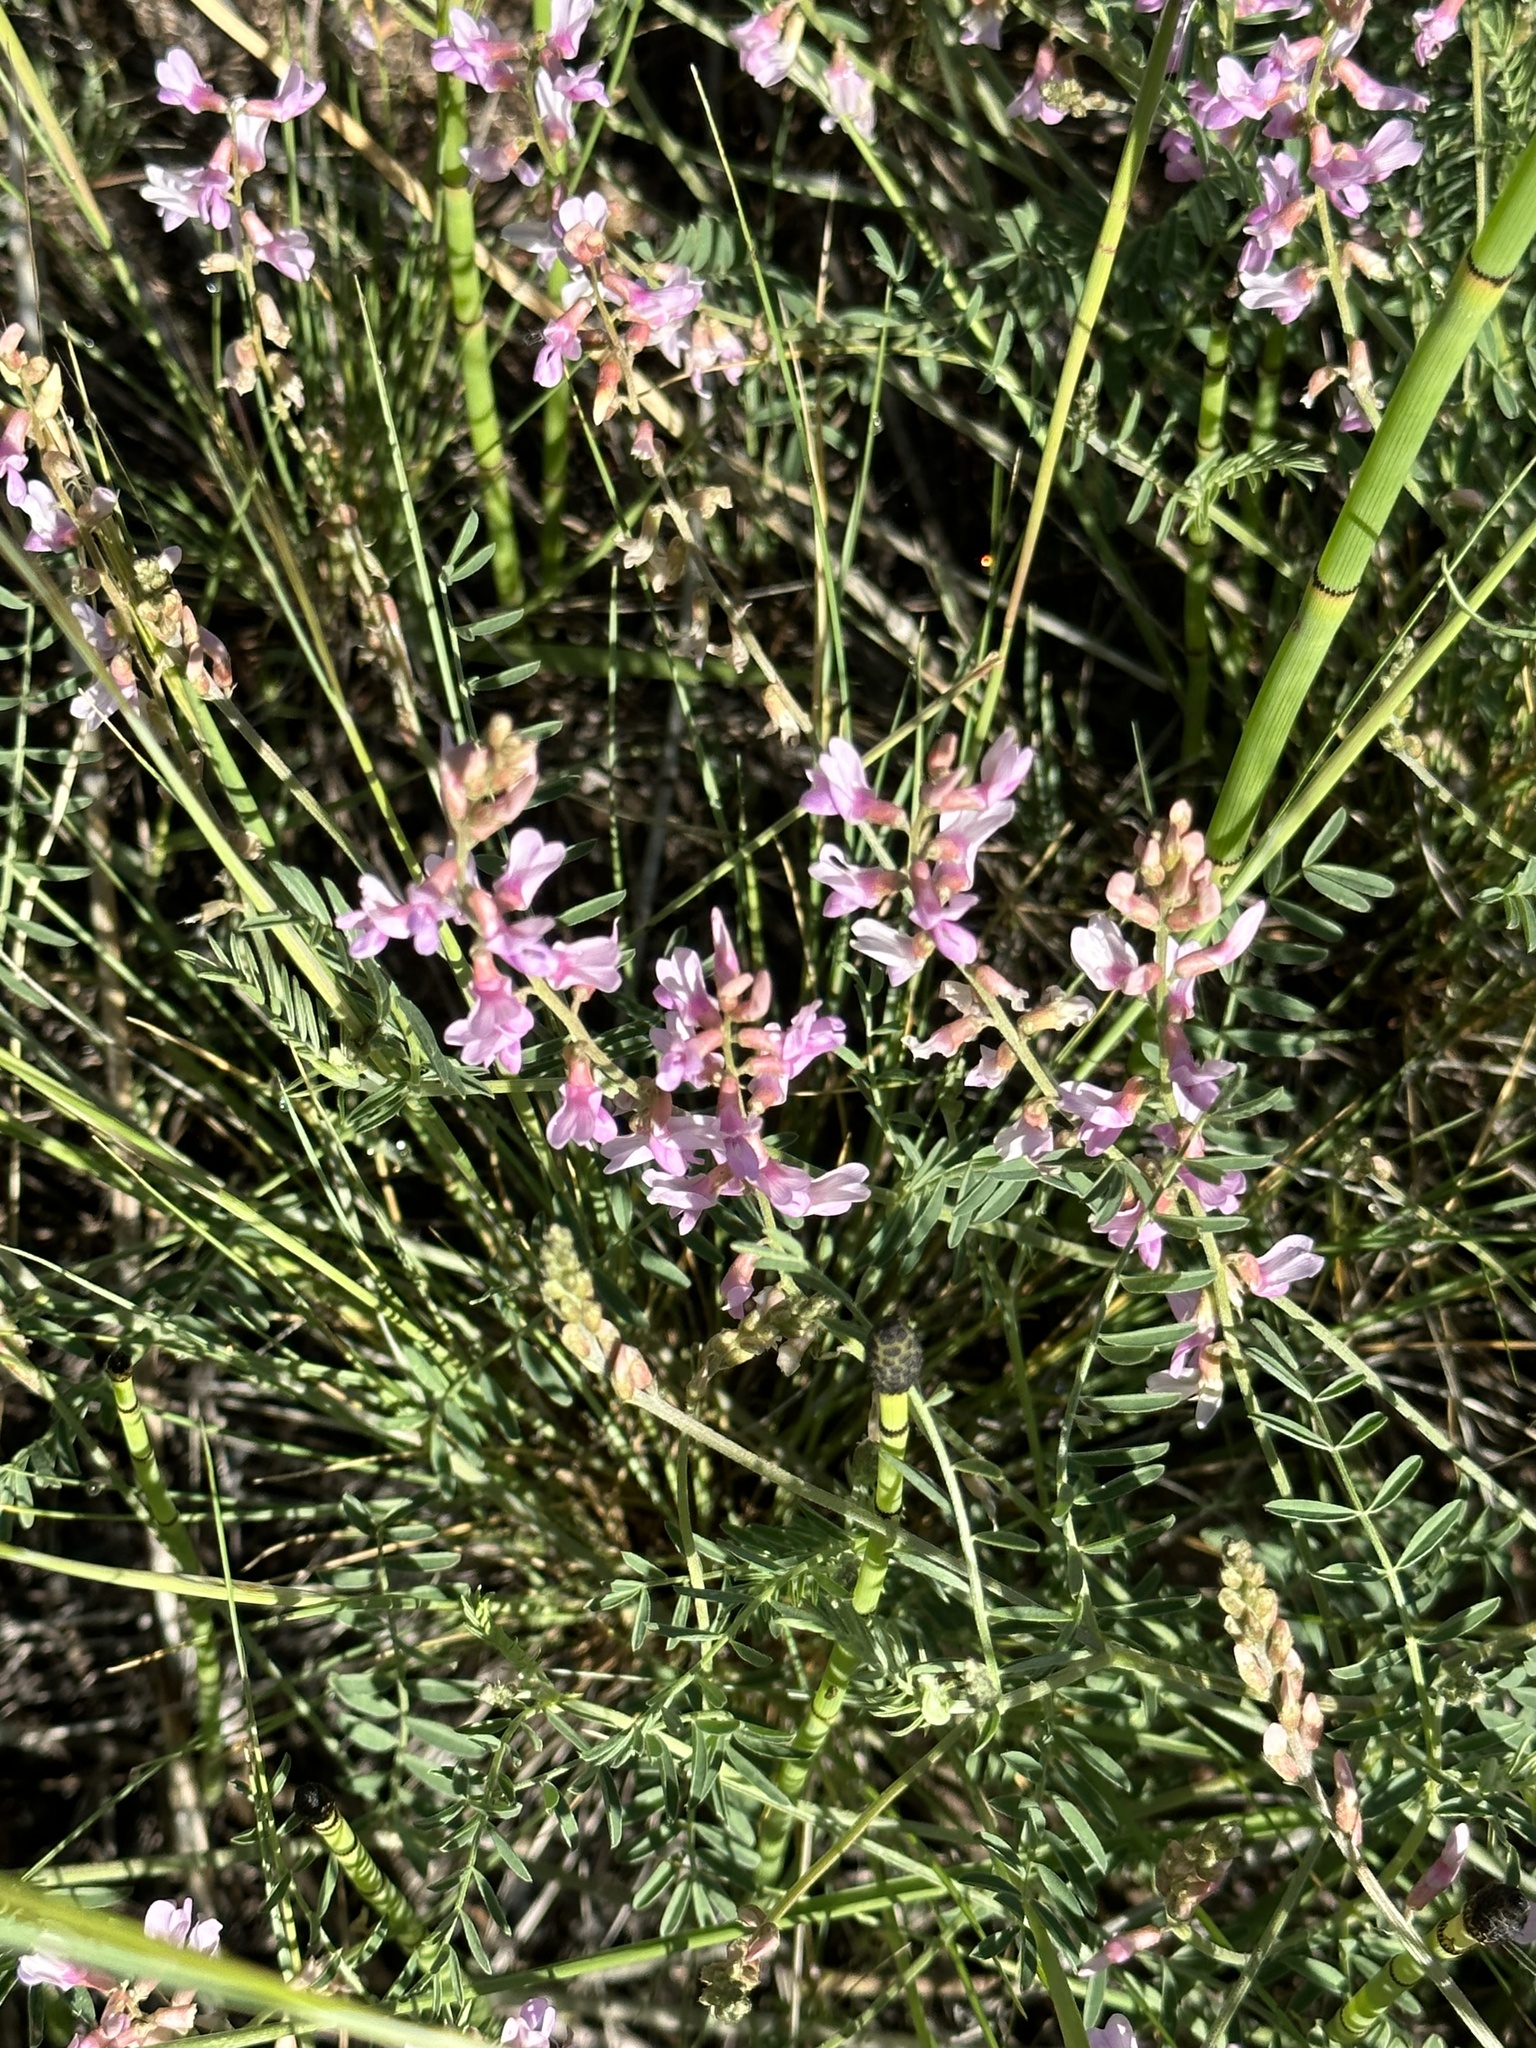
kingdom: Plantae
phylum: Tracheophyta
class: Magnoliopsida
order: Fabales
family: Fabaceae
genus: Astragalus
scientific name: Astragalus flexuosus
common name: Pliant milk-vetch
